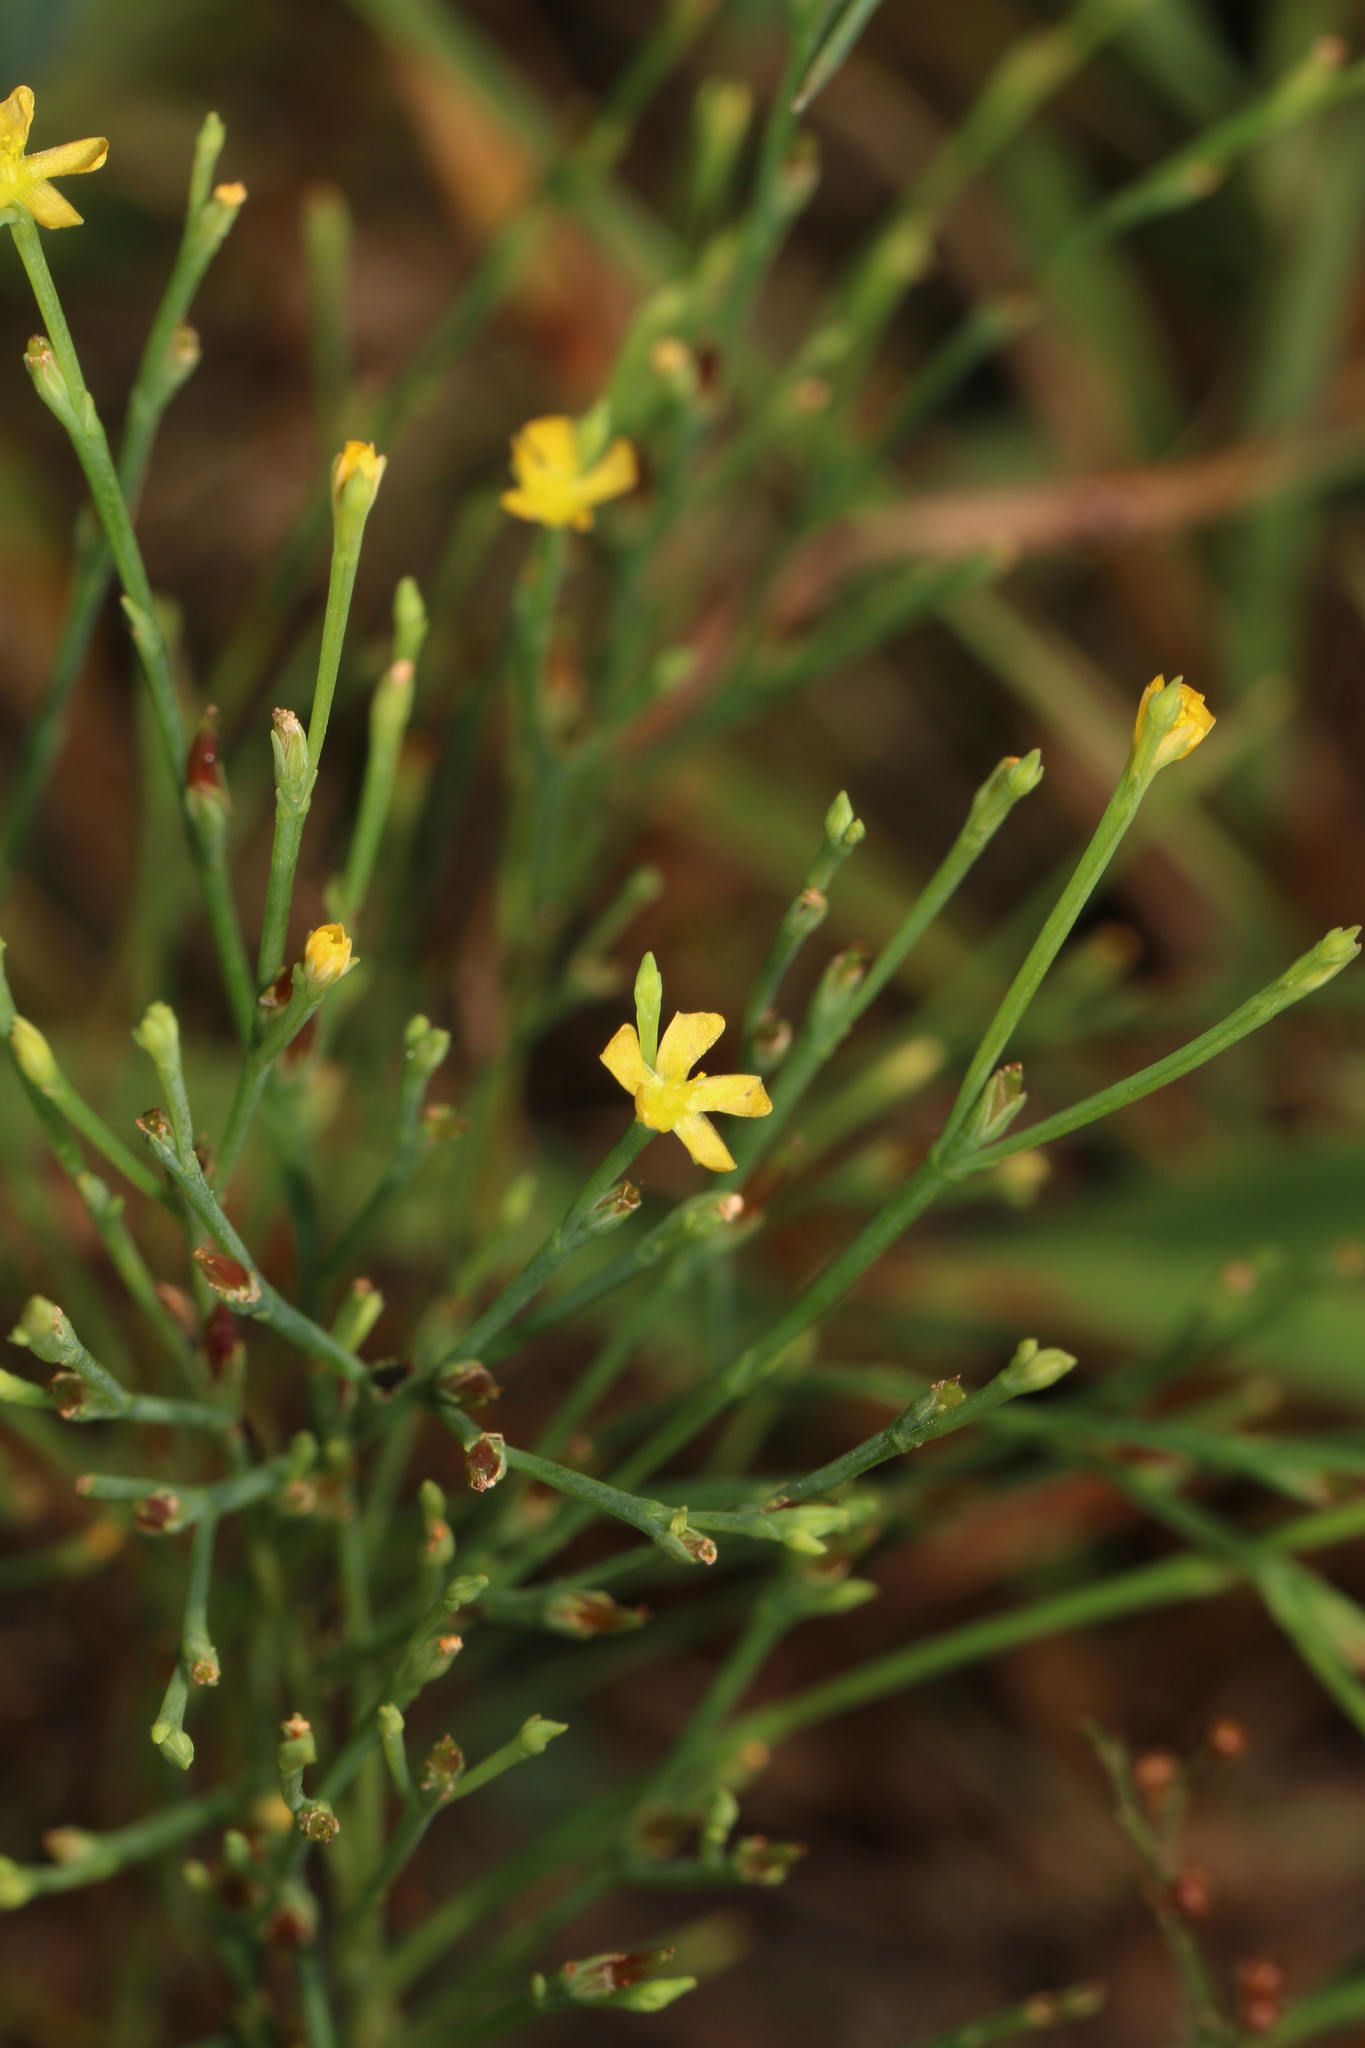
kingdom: Plantae
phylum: Tracheophyta
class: Magnoliopsida
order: Malpighiales
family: Hypericaceae
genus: Hypericum
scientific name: Hypericum gentianoides
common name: Gentian-leaved st. john's-wort
